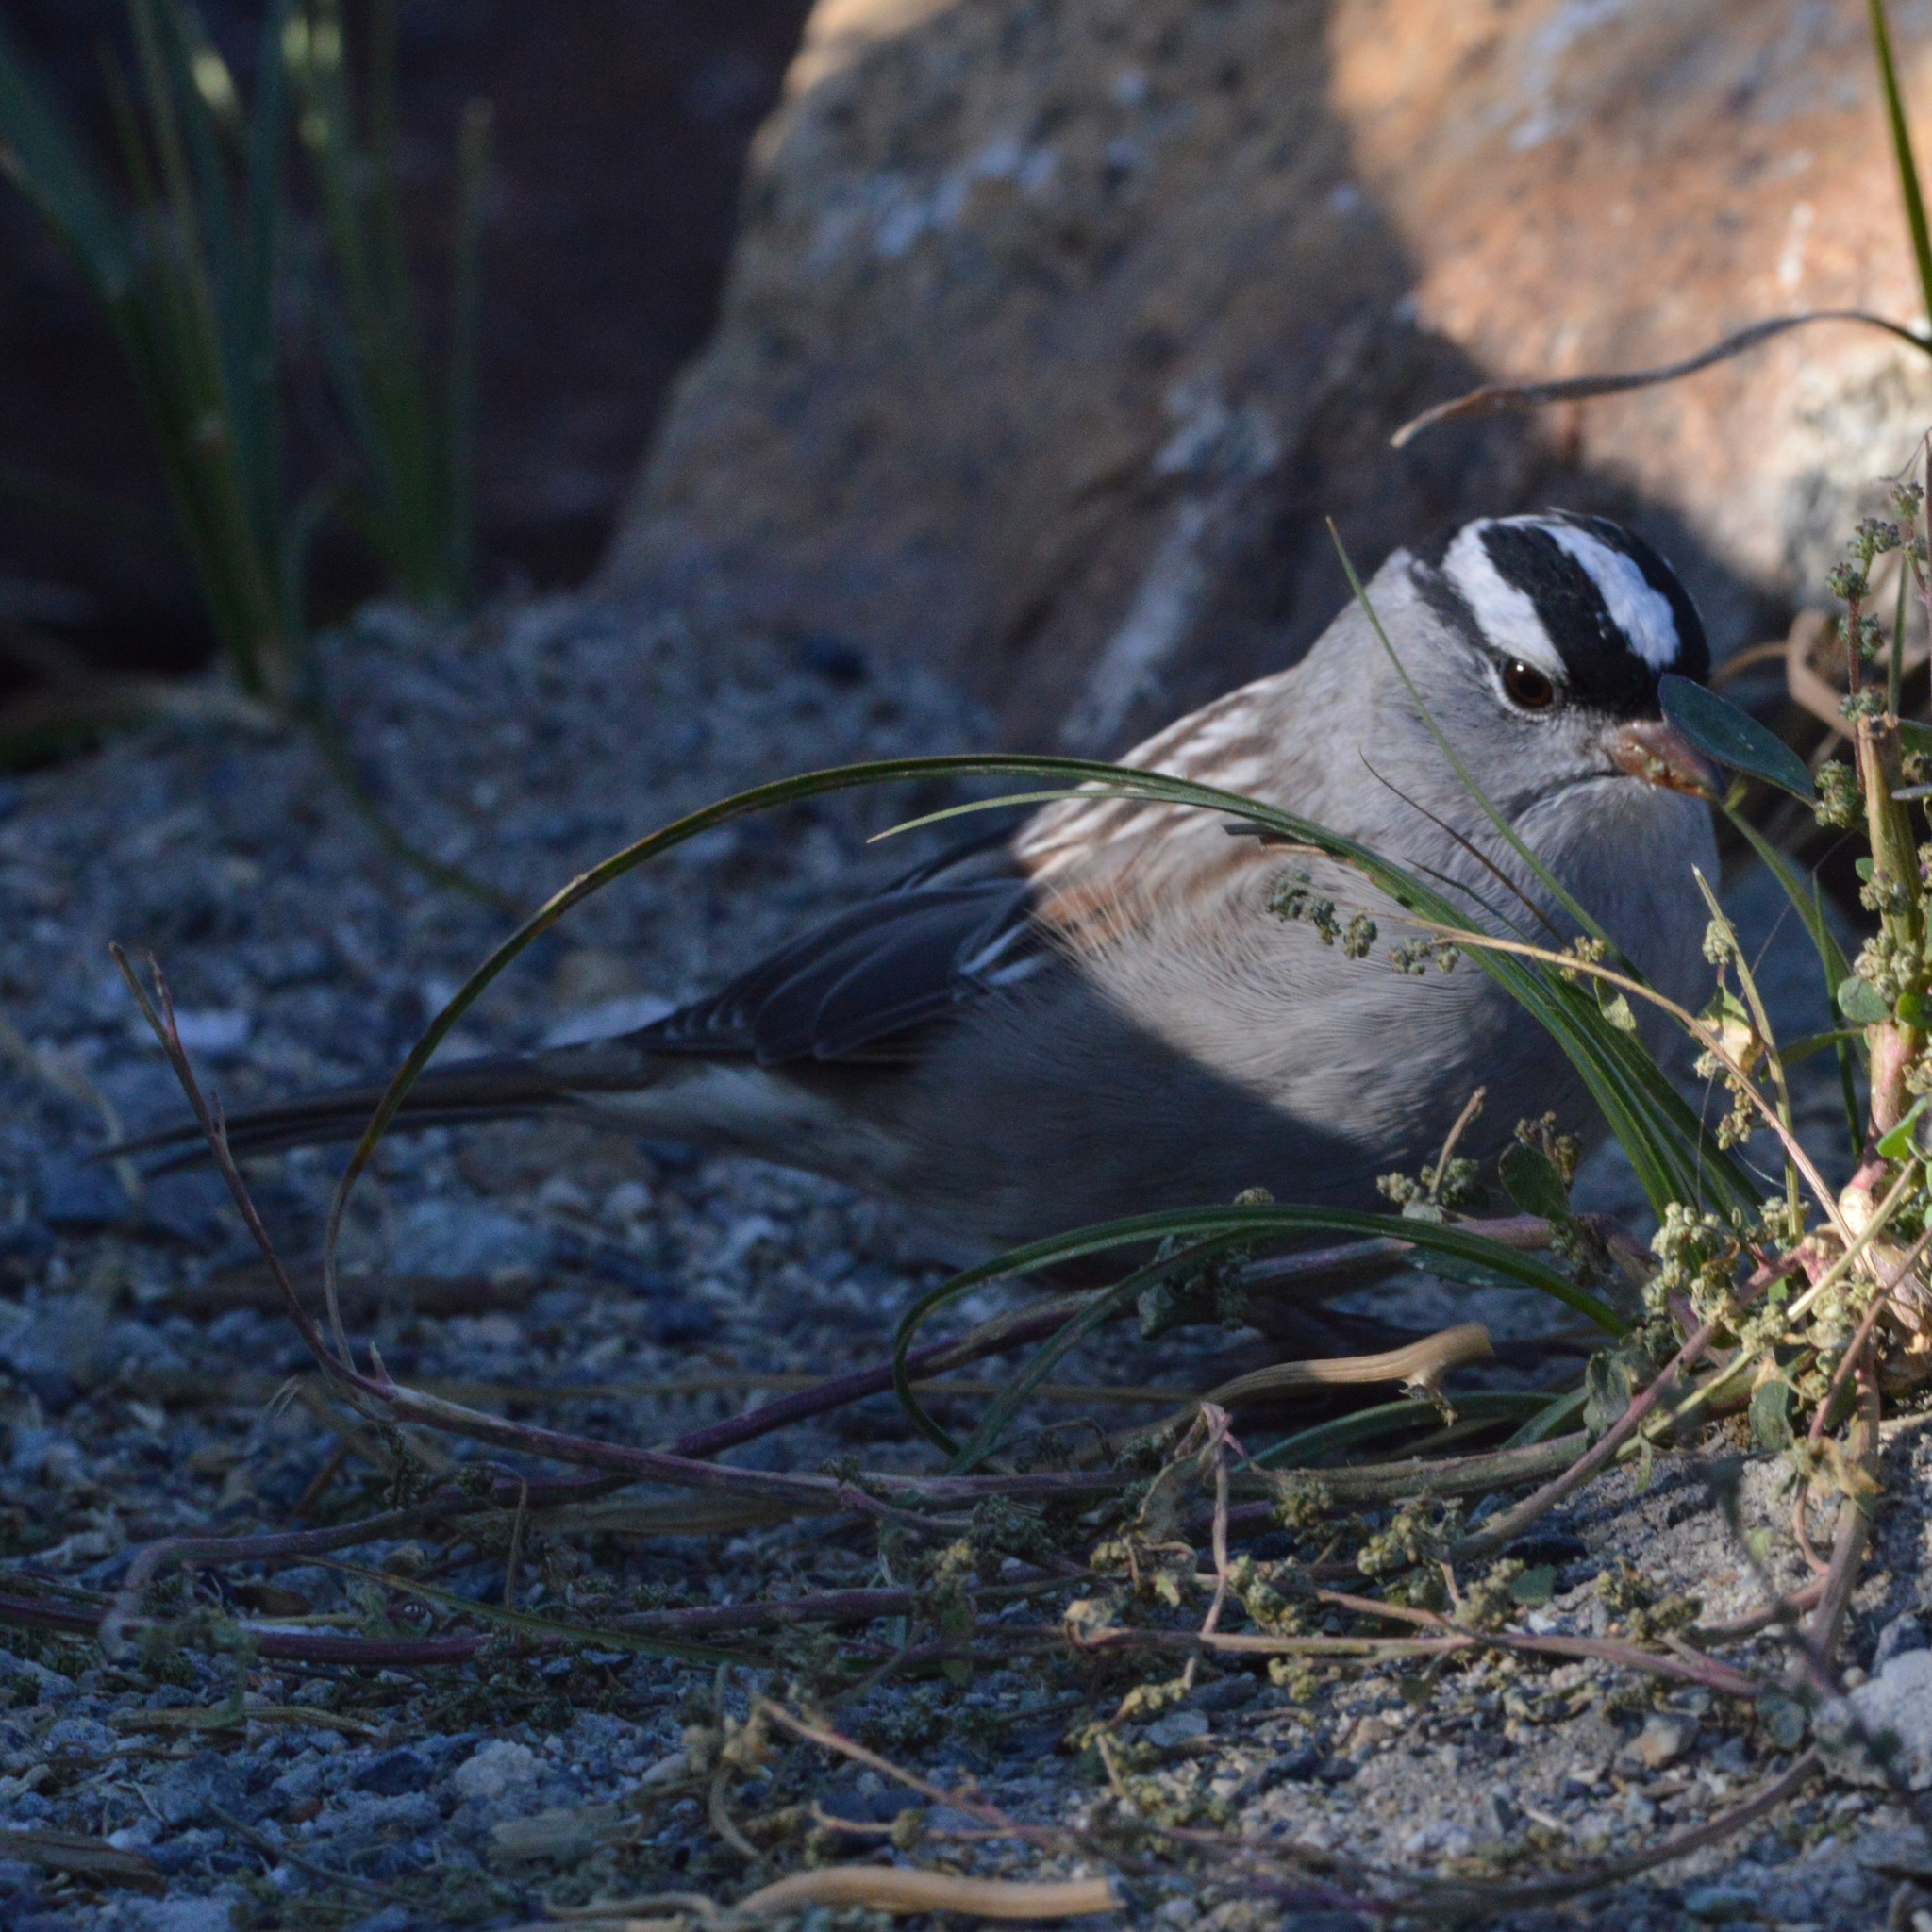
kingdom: Animalia
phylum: Chordata
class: Aves
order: Passeriformes
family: Passerellidae
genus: Zonotrichia
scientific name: Zonotrichia leucophrys
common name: White-crowned sparrow
